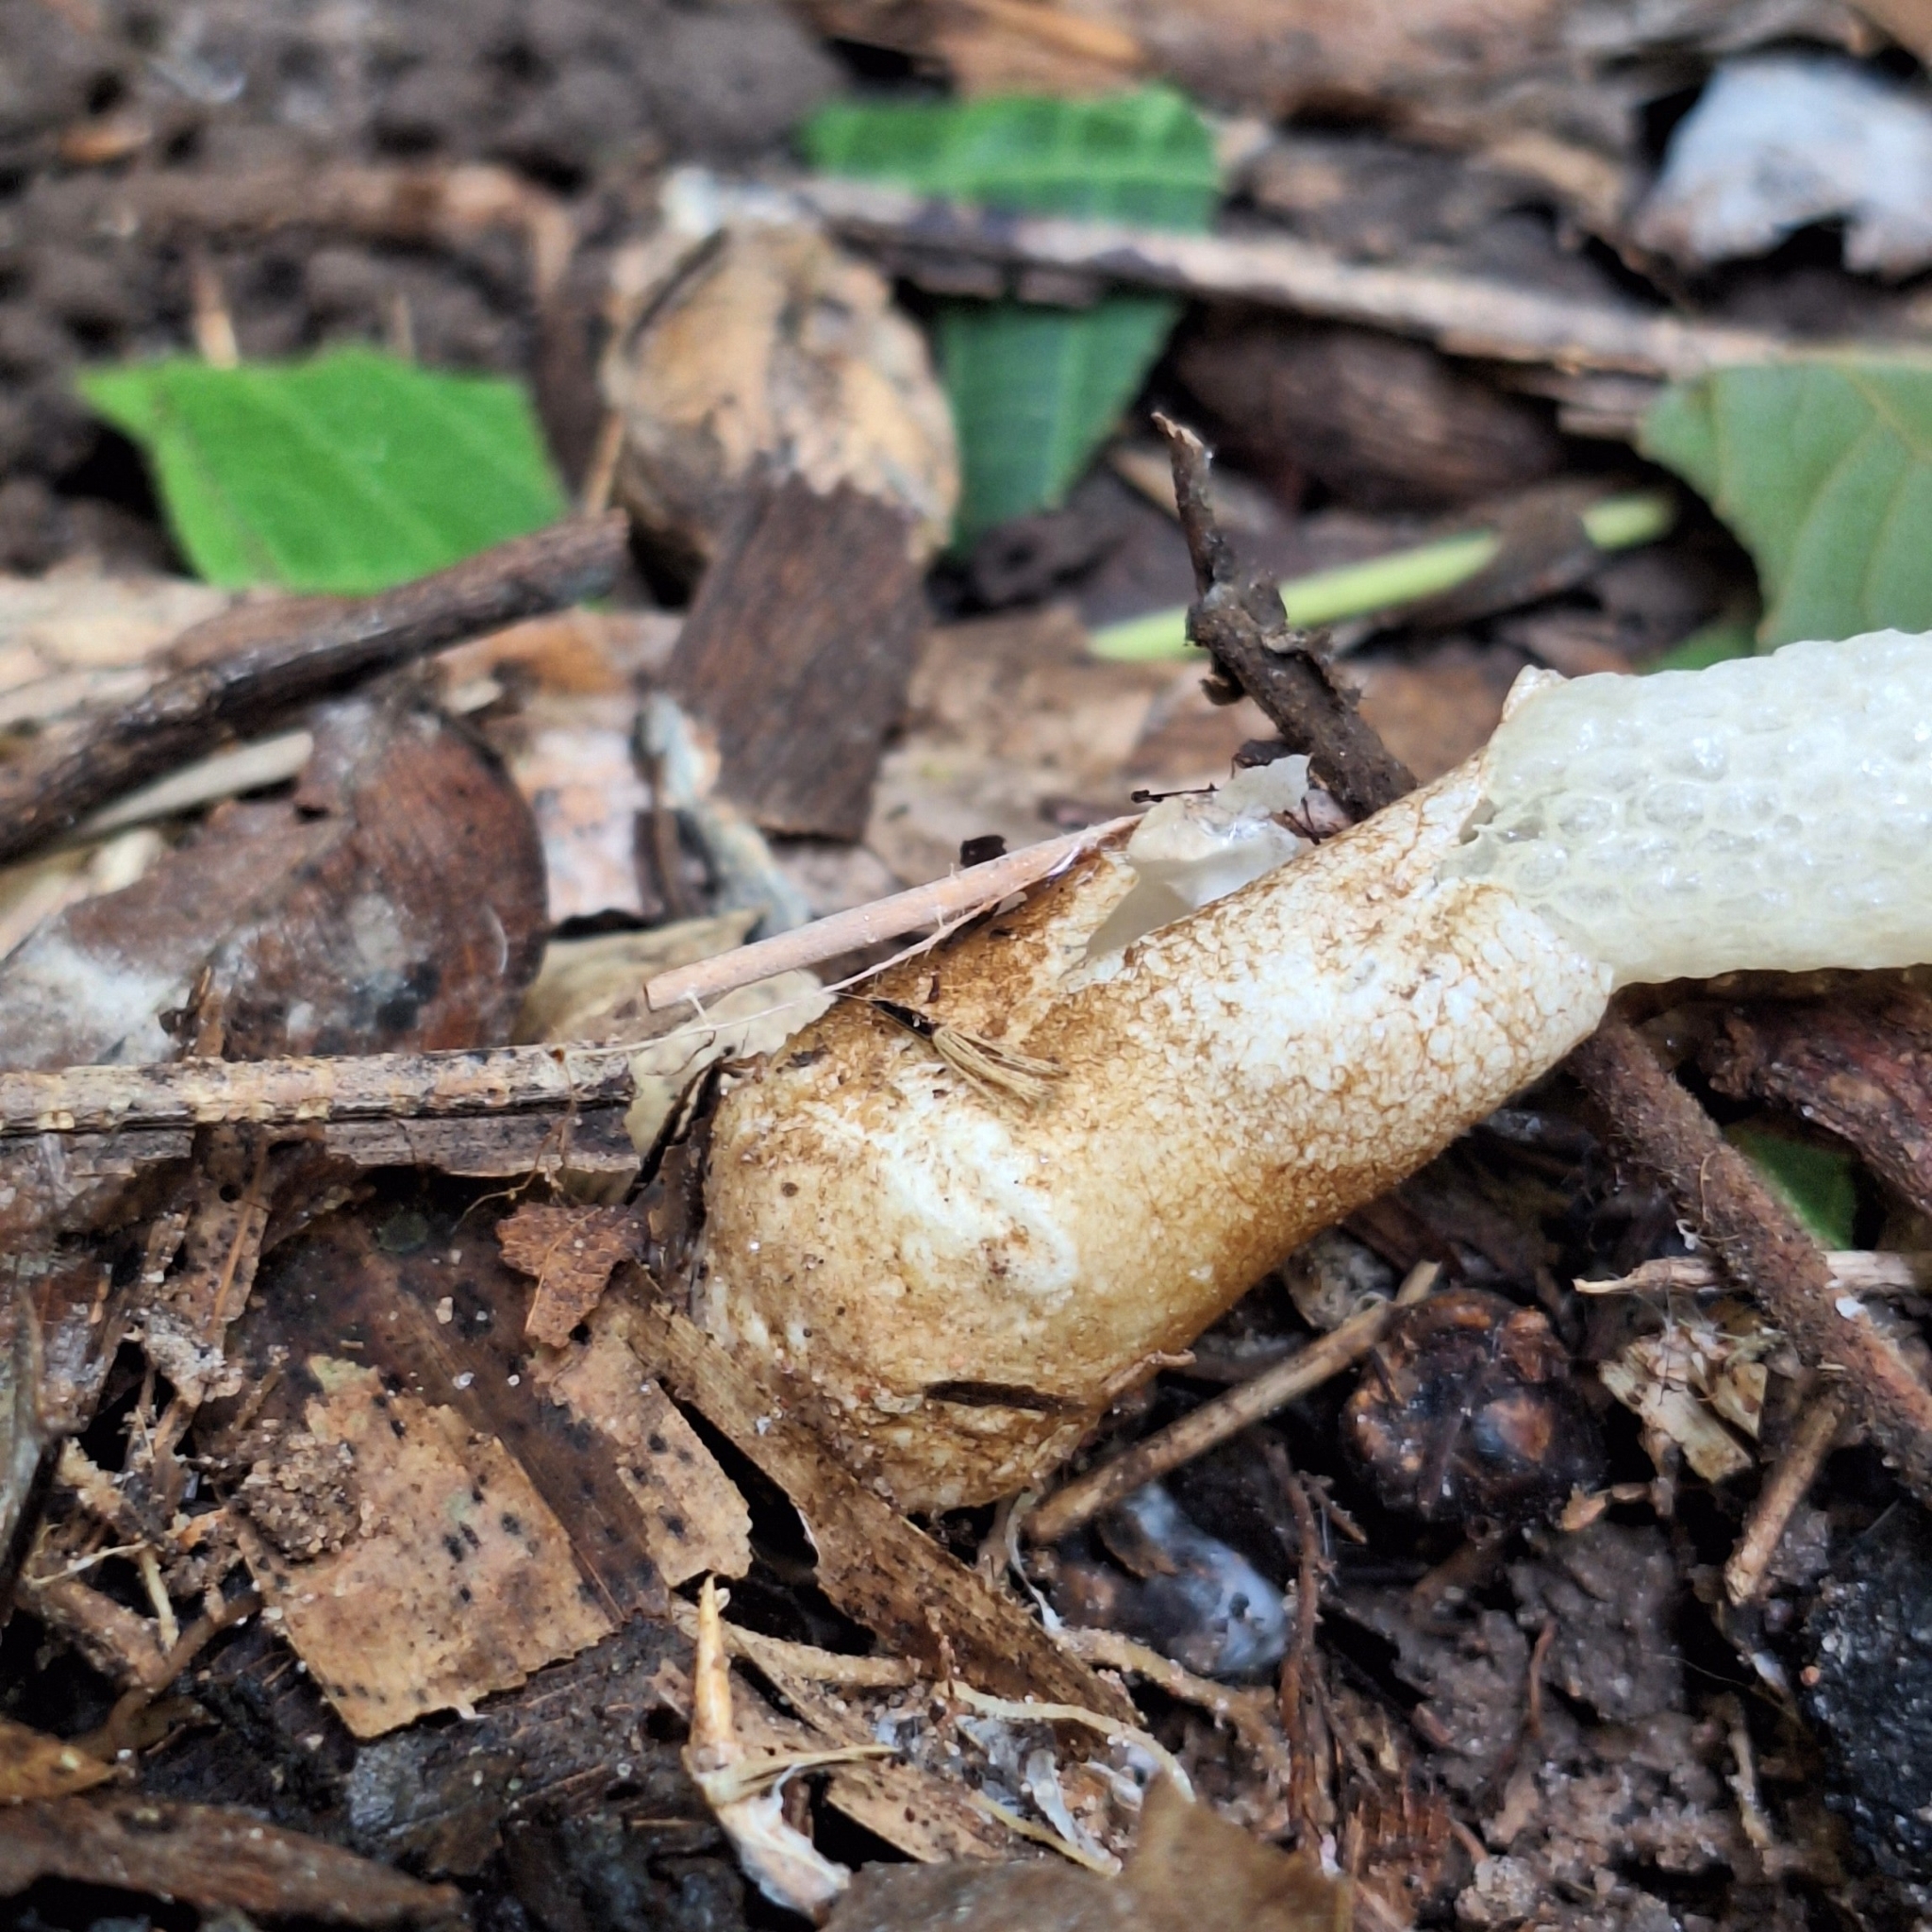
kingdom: Fungi
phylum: Basidiomycota
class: Agaricomycetes
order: Phallales
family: Phallaceae
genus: Mutinus
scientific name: Mutinus argentinus
